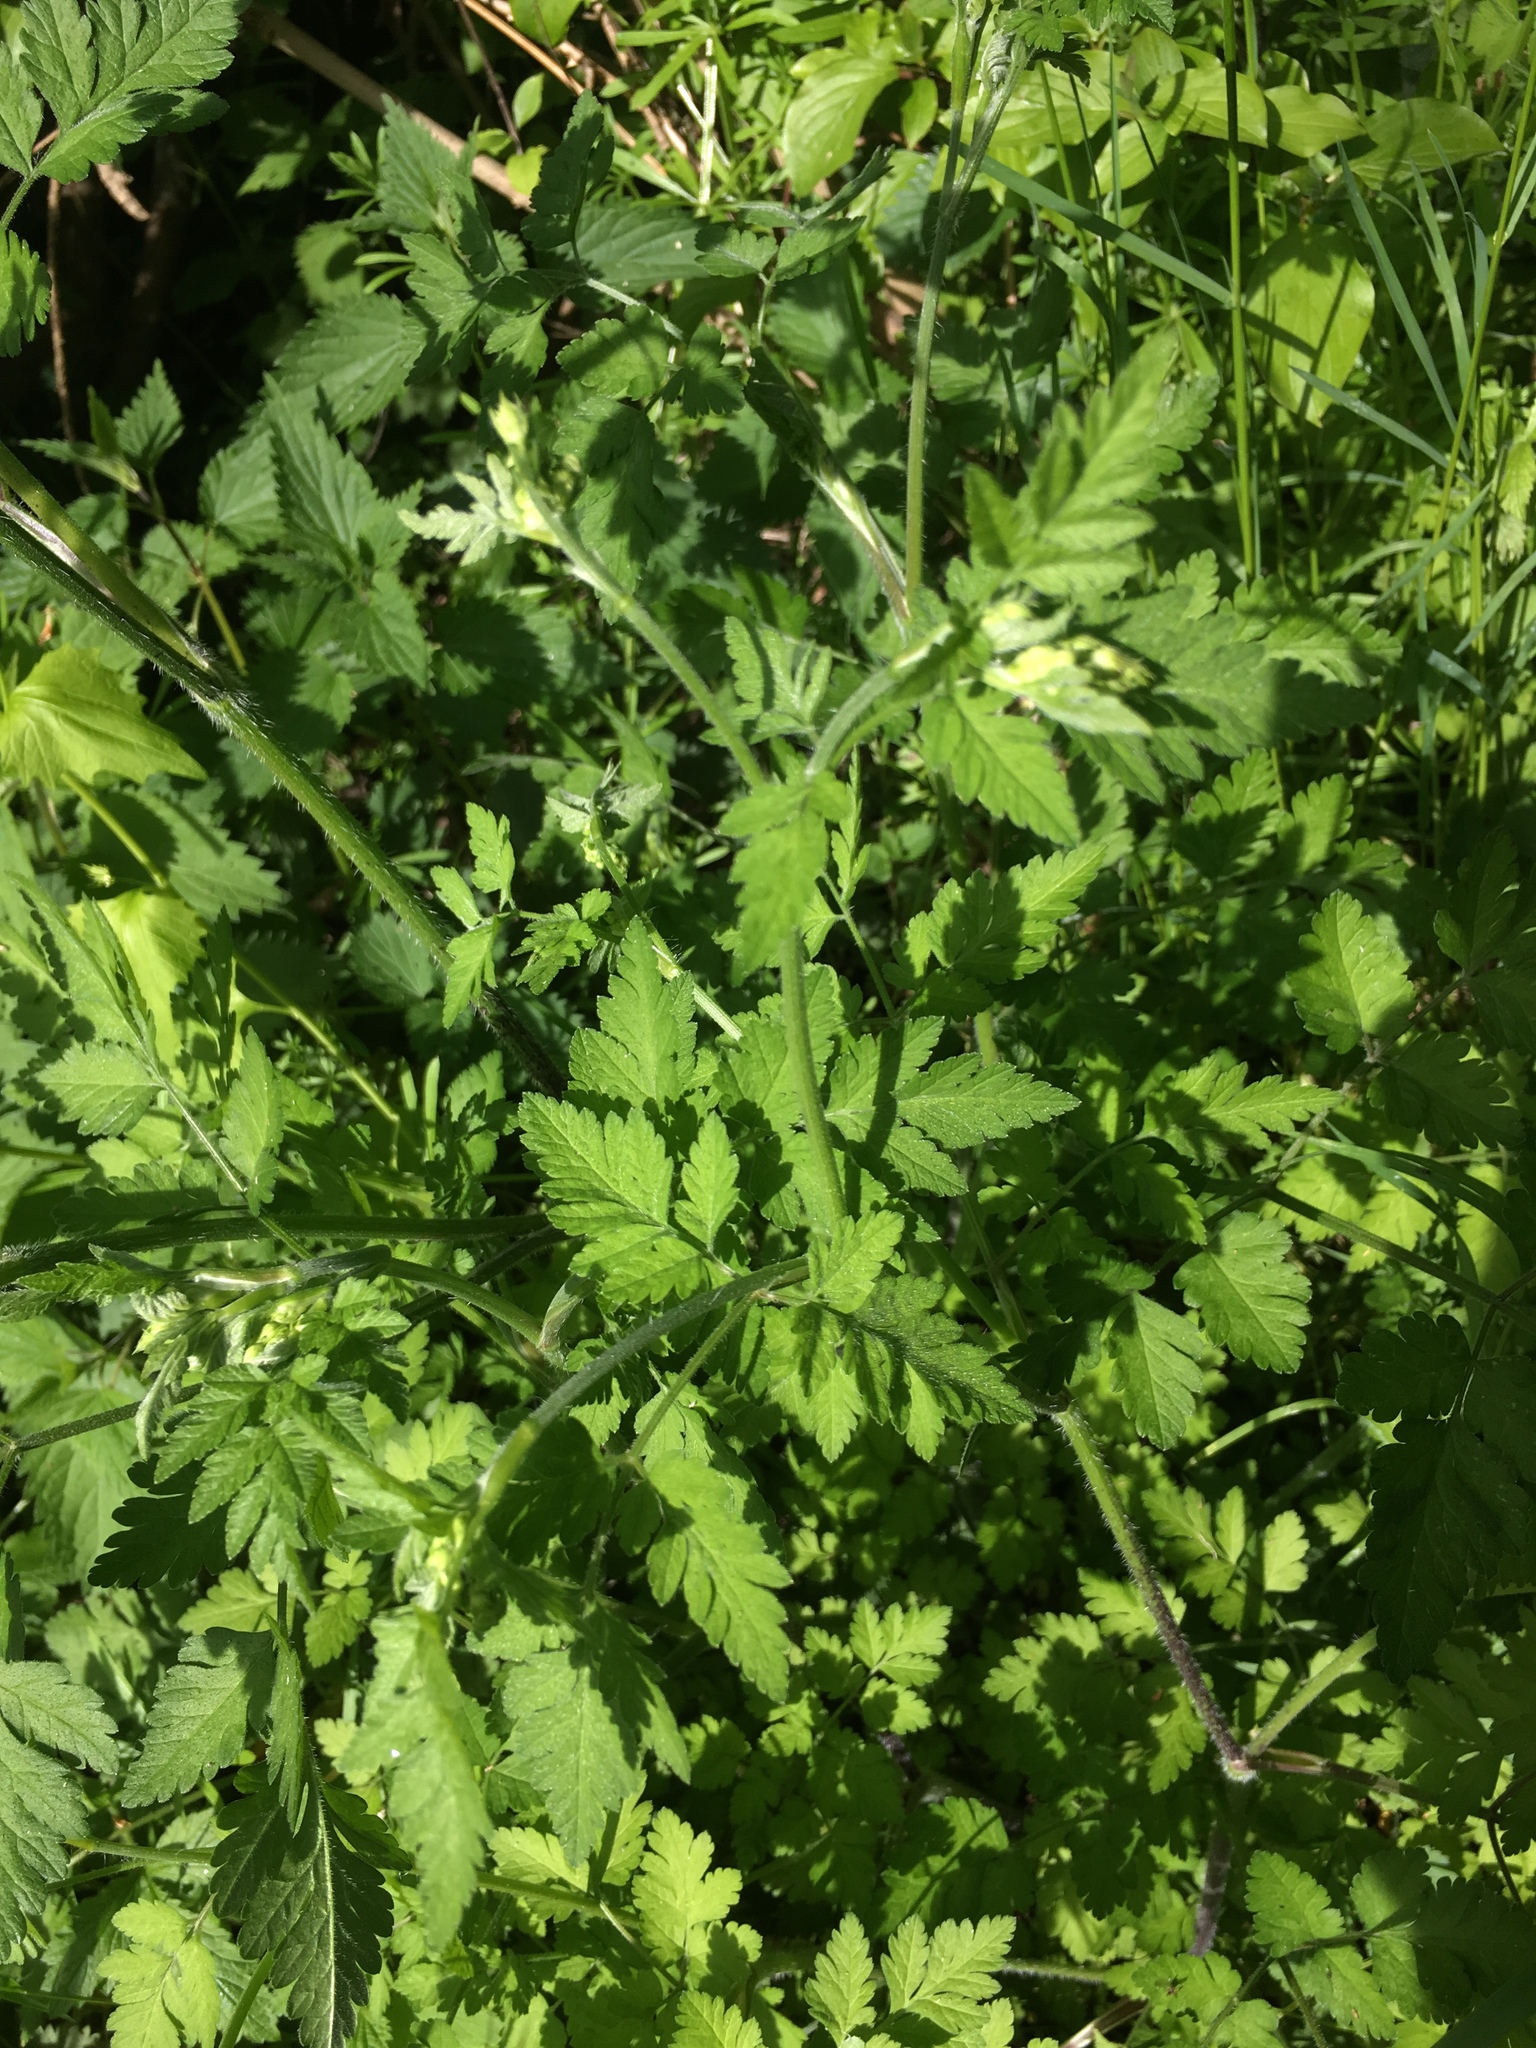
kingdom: Plantae
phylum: Tracheophyta
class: Magnoliopsida
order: Apiales
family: Apiaceae
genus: Chaerophyllum
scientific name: Chaerophyllum temulum
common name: Rough chervil
